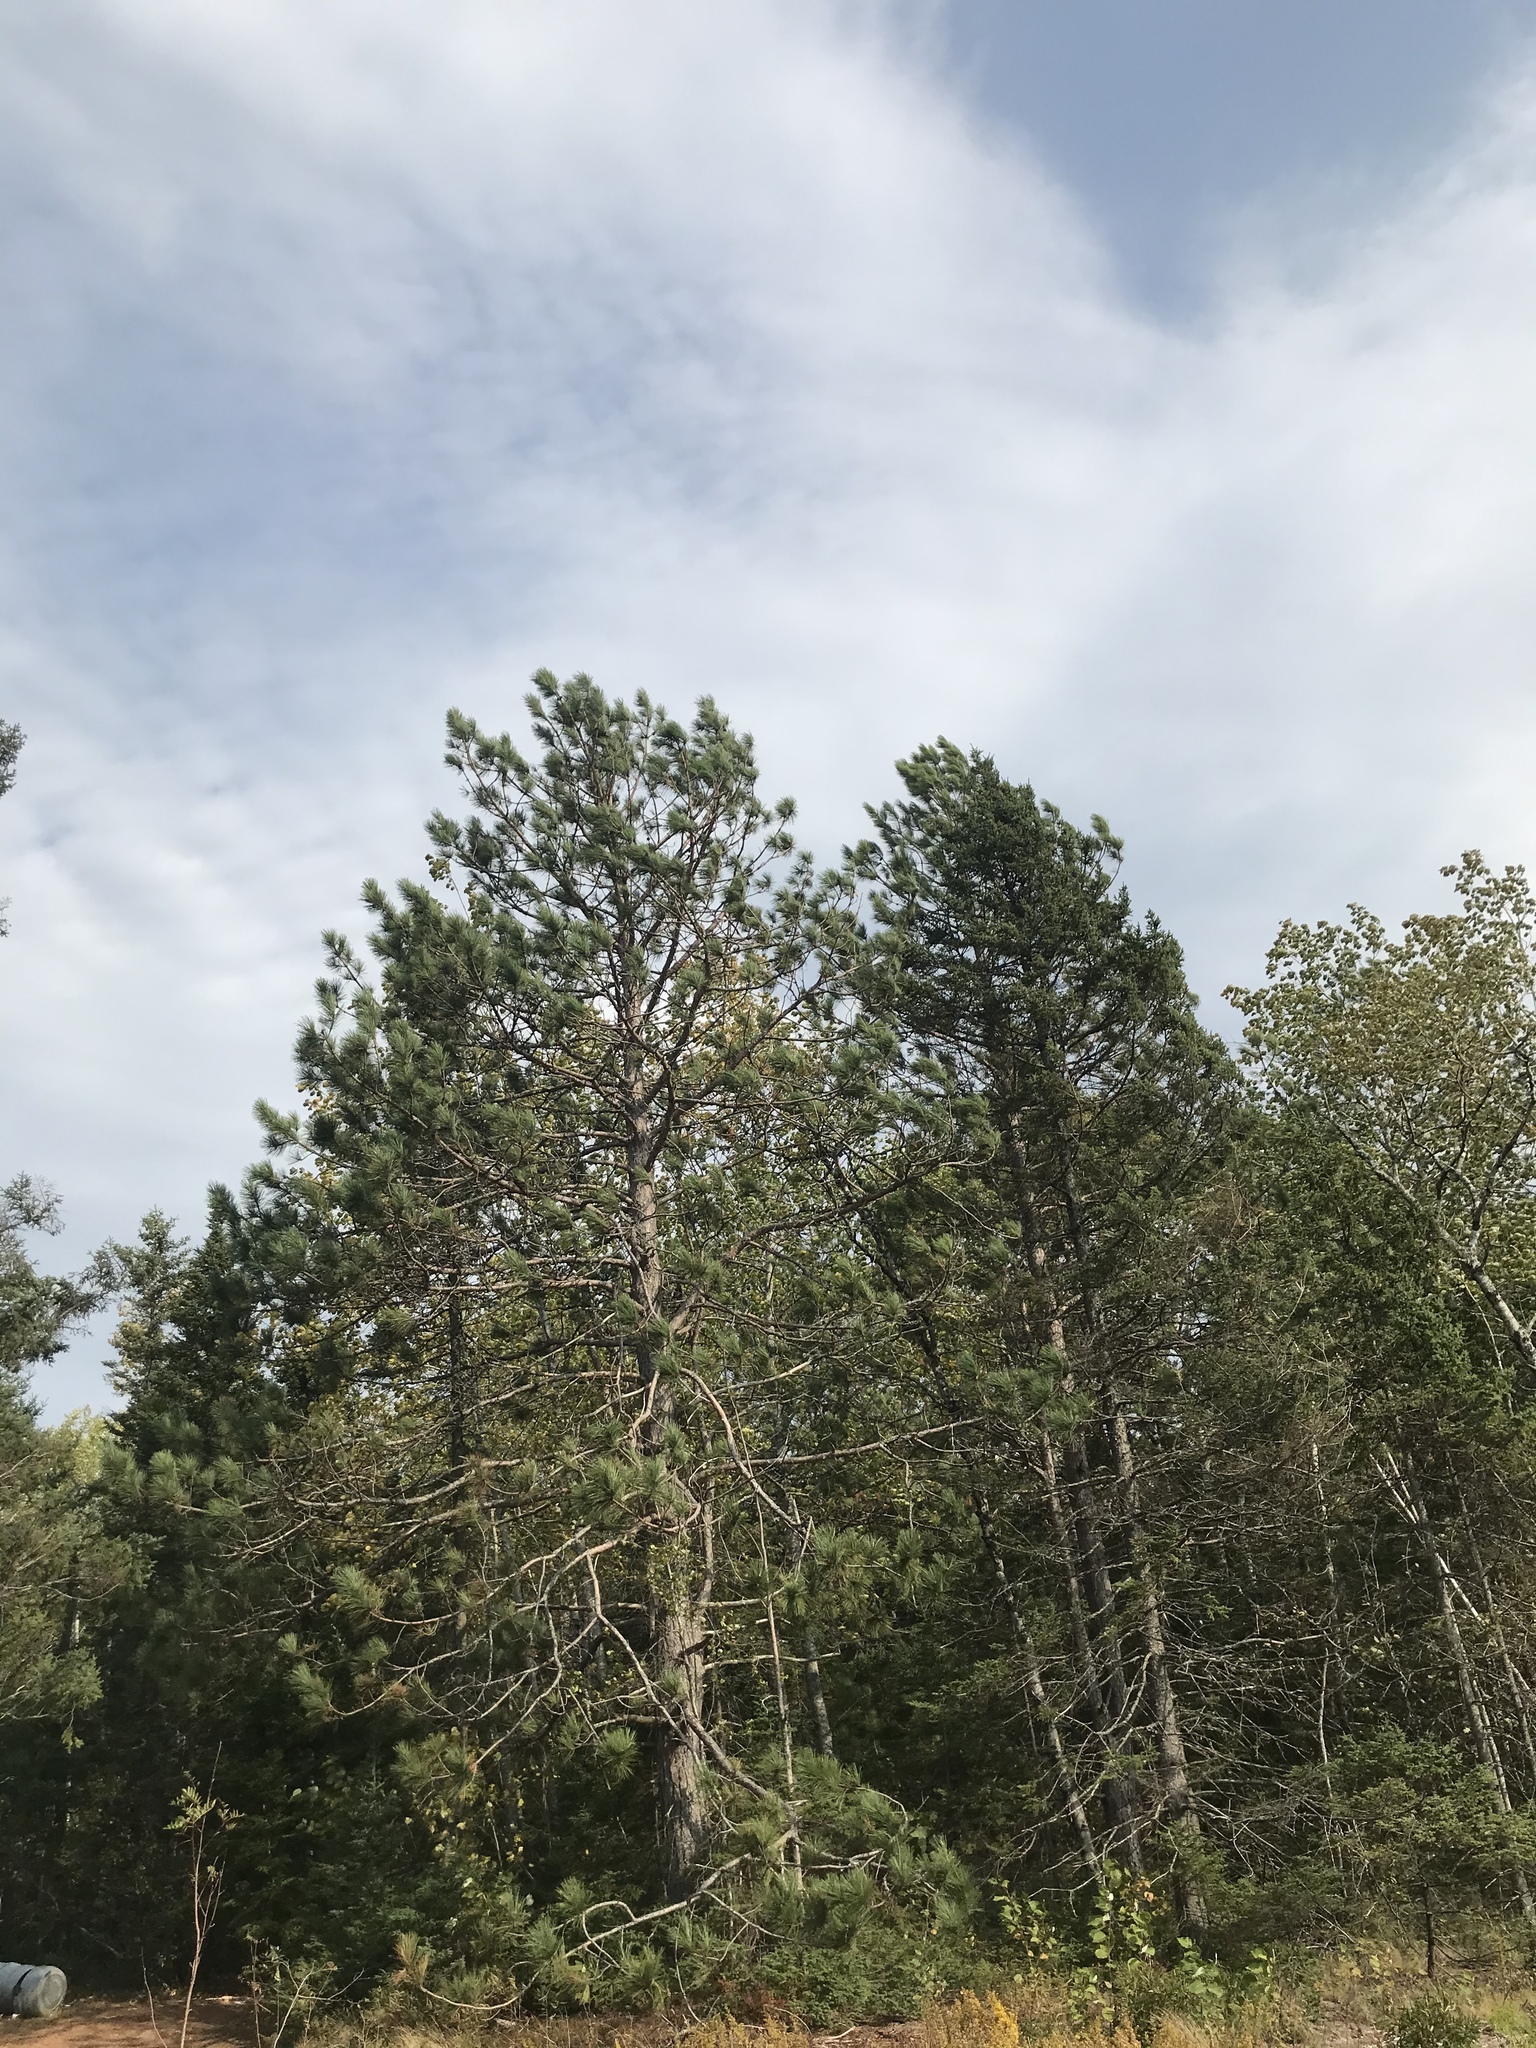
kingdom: Plantae
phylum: Tracheophyta
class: Pinopsida
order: Pinales
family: Pinaceae
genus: Pinus
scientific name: Pinus resinosa
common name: Norway pine
